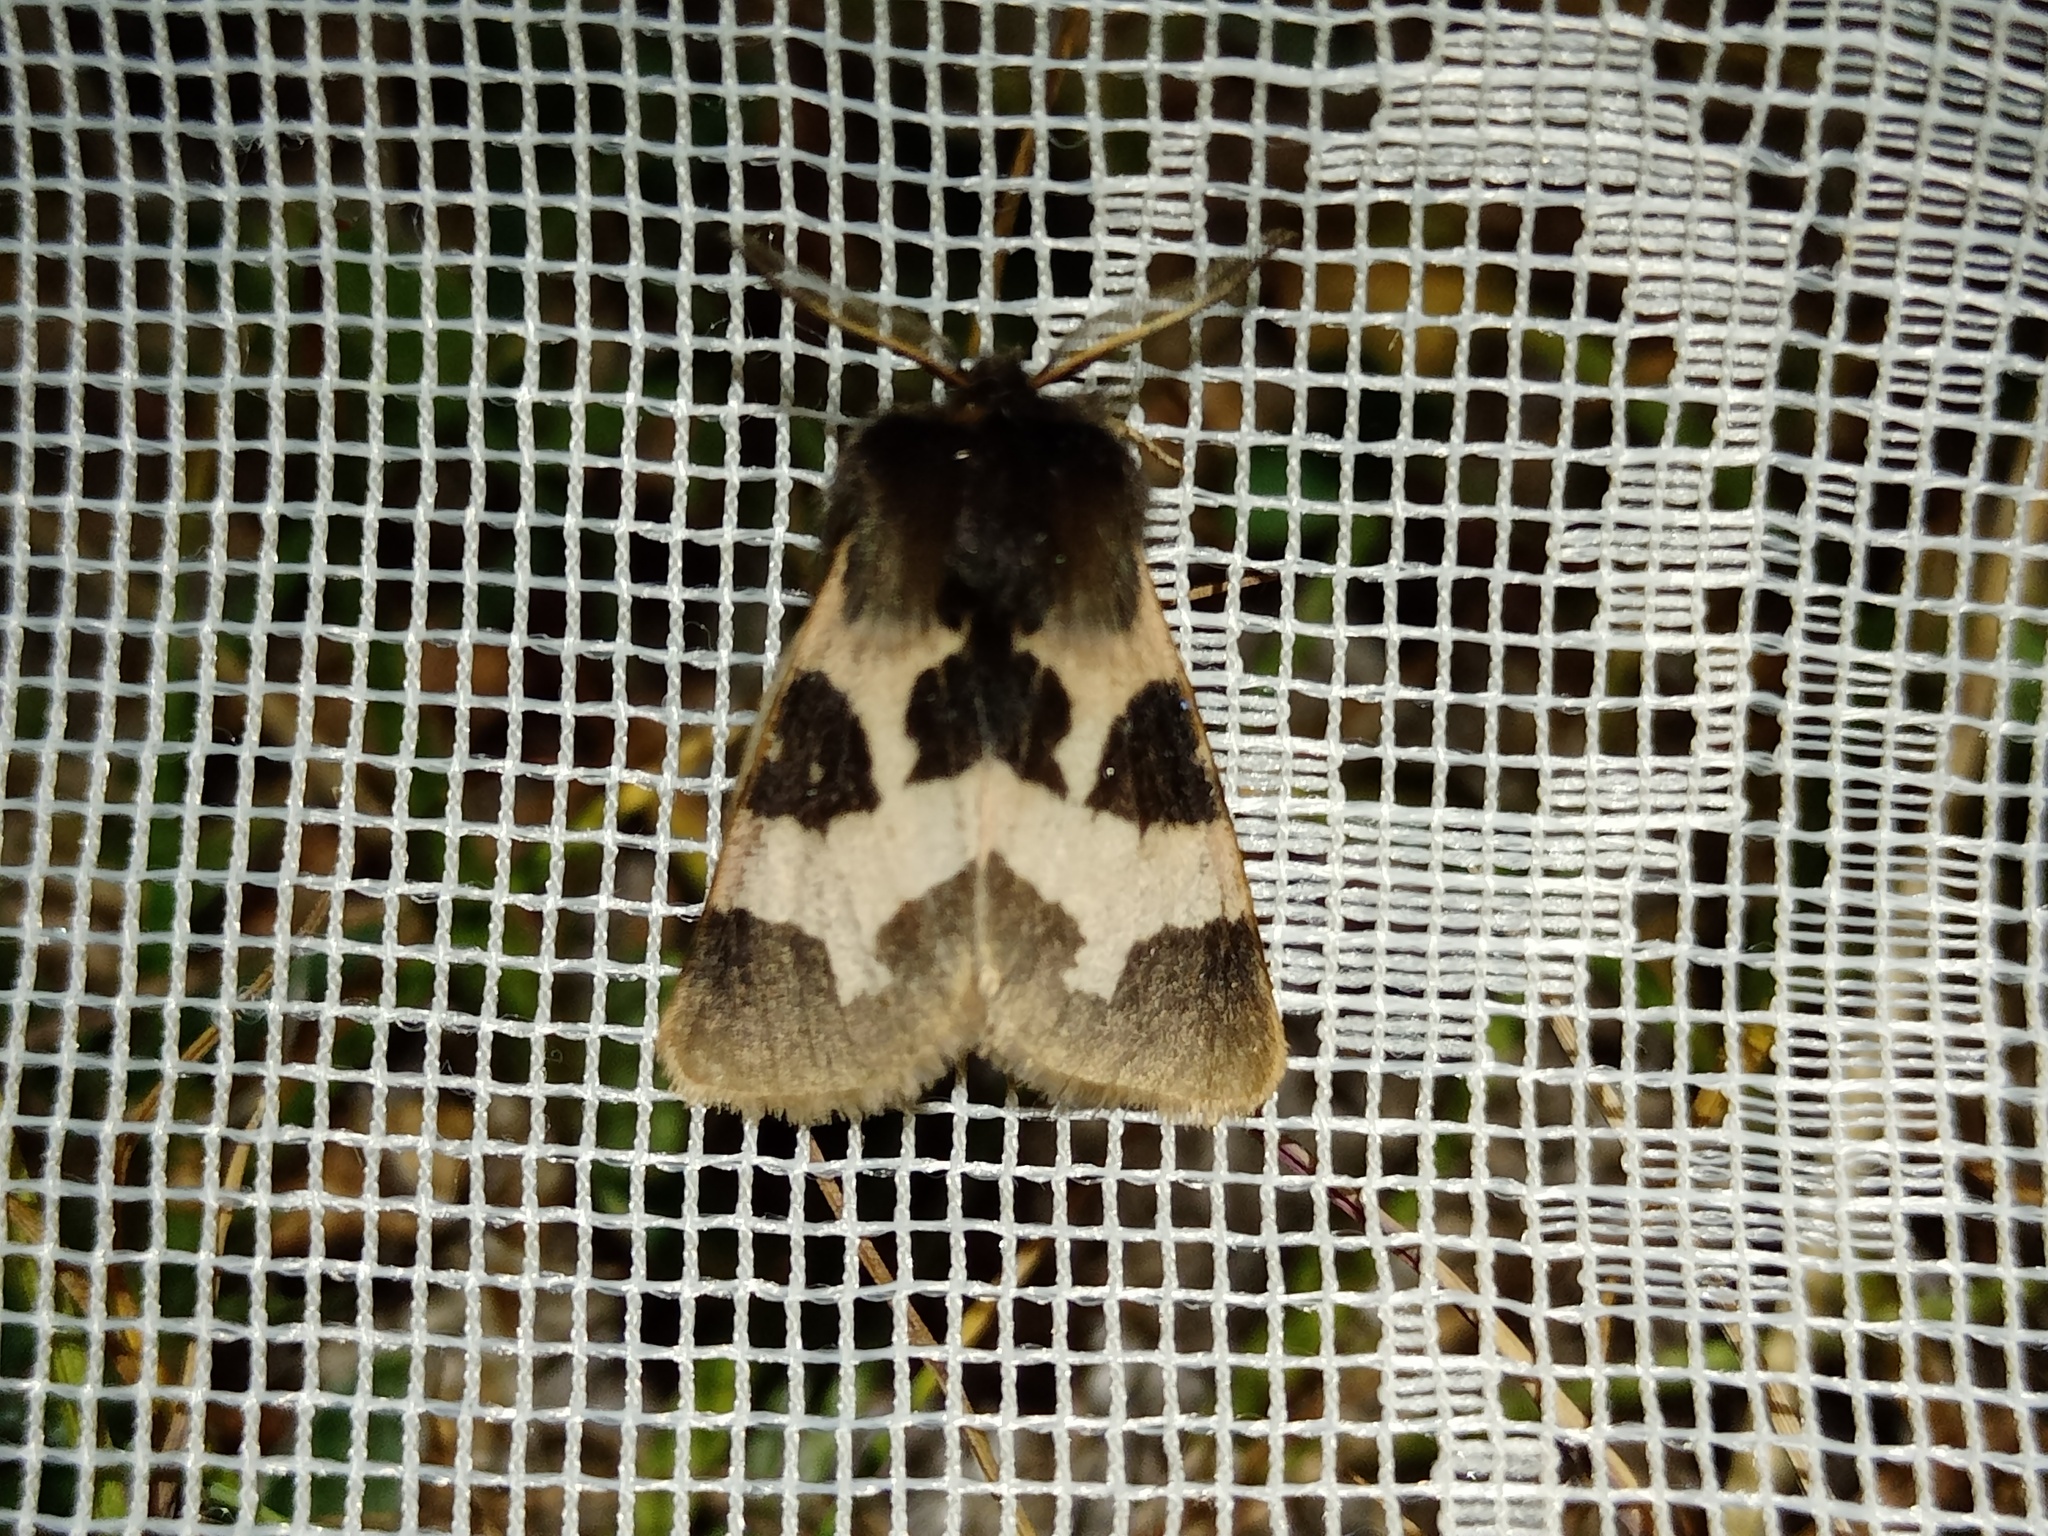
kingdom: Animalia
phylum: Arthropoda
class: Insecta
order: Lepidoptera
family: Erebidae
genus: Watsonarctia
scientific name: Watsonarctia deserta
